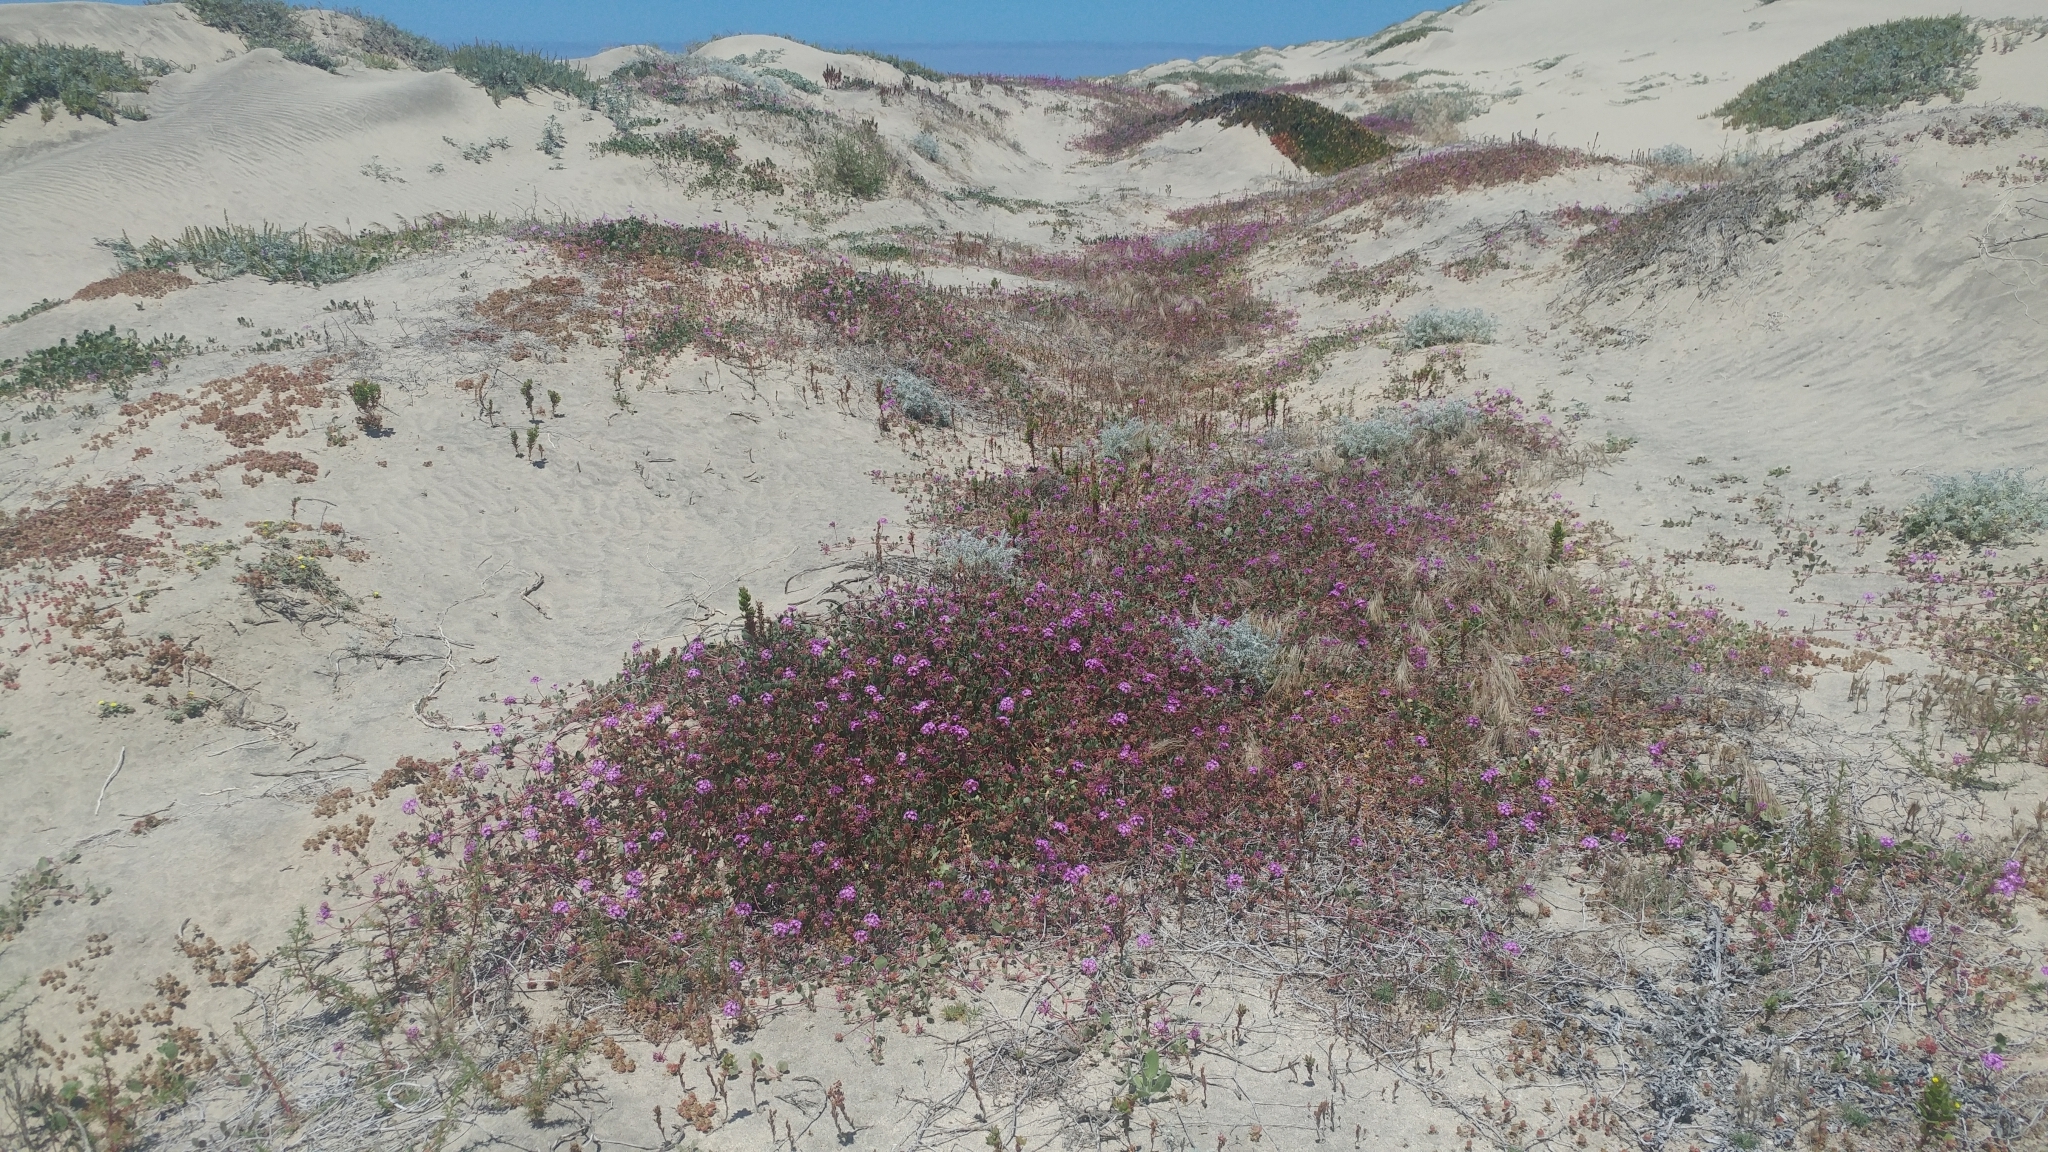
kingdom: Plantae
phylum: Tracheophyta
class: Magnoliopsida
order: Caryophyllales
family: Nyctaginaceae
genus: Abronia
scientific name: Abronia umbellata
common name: Sand-verbena
